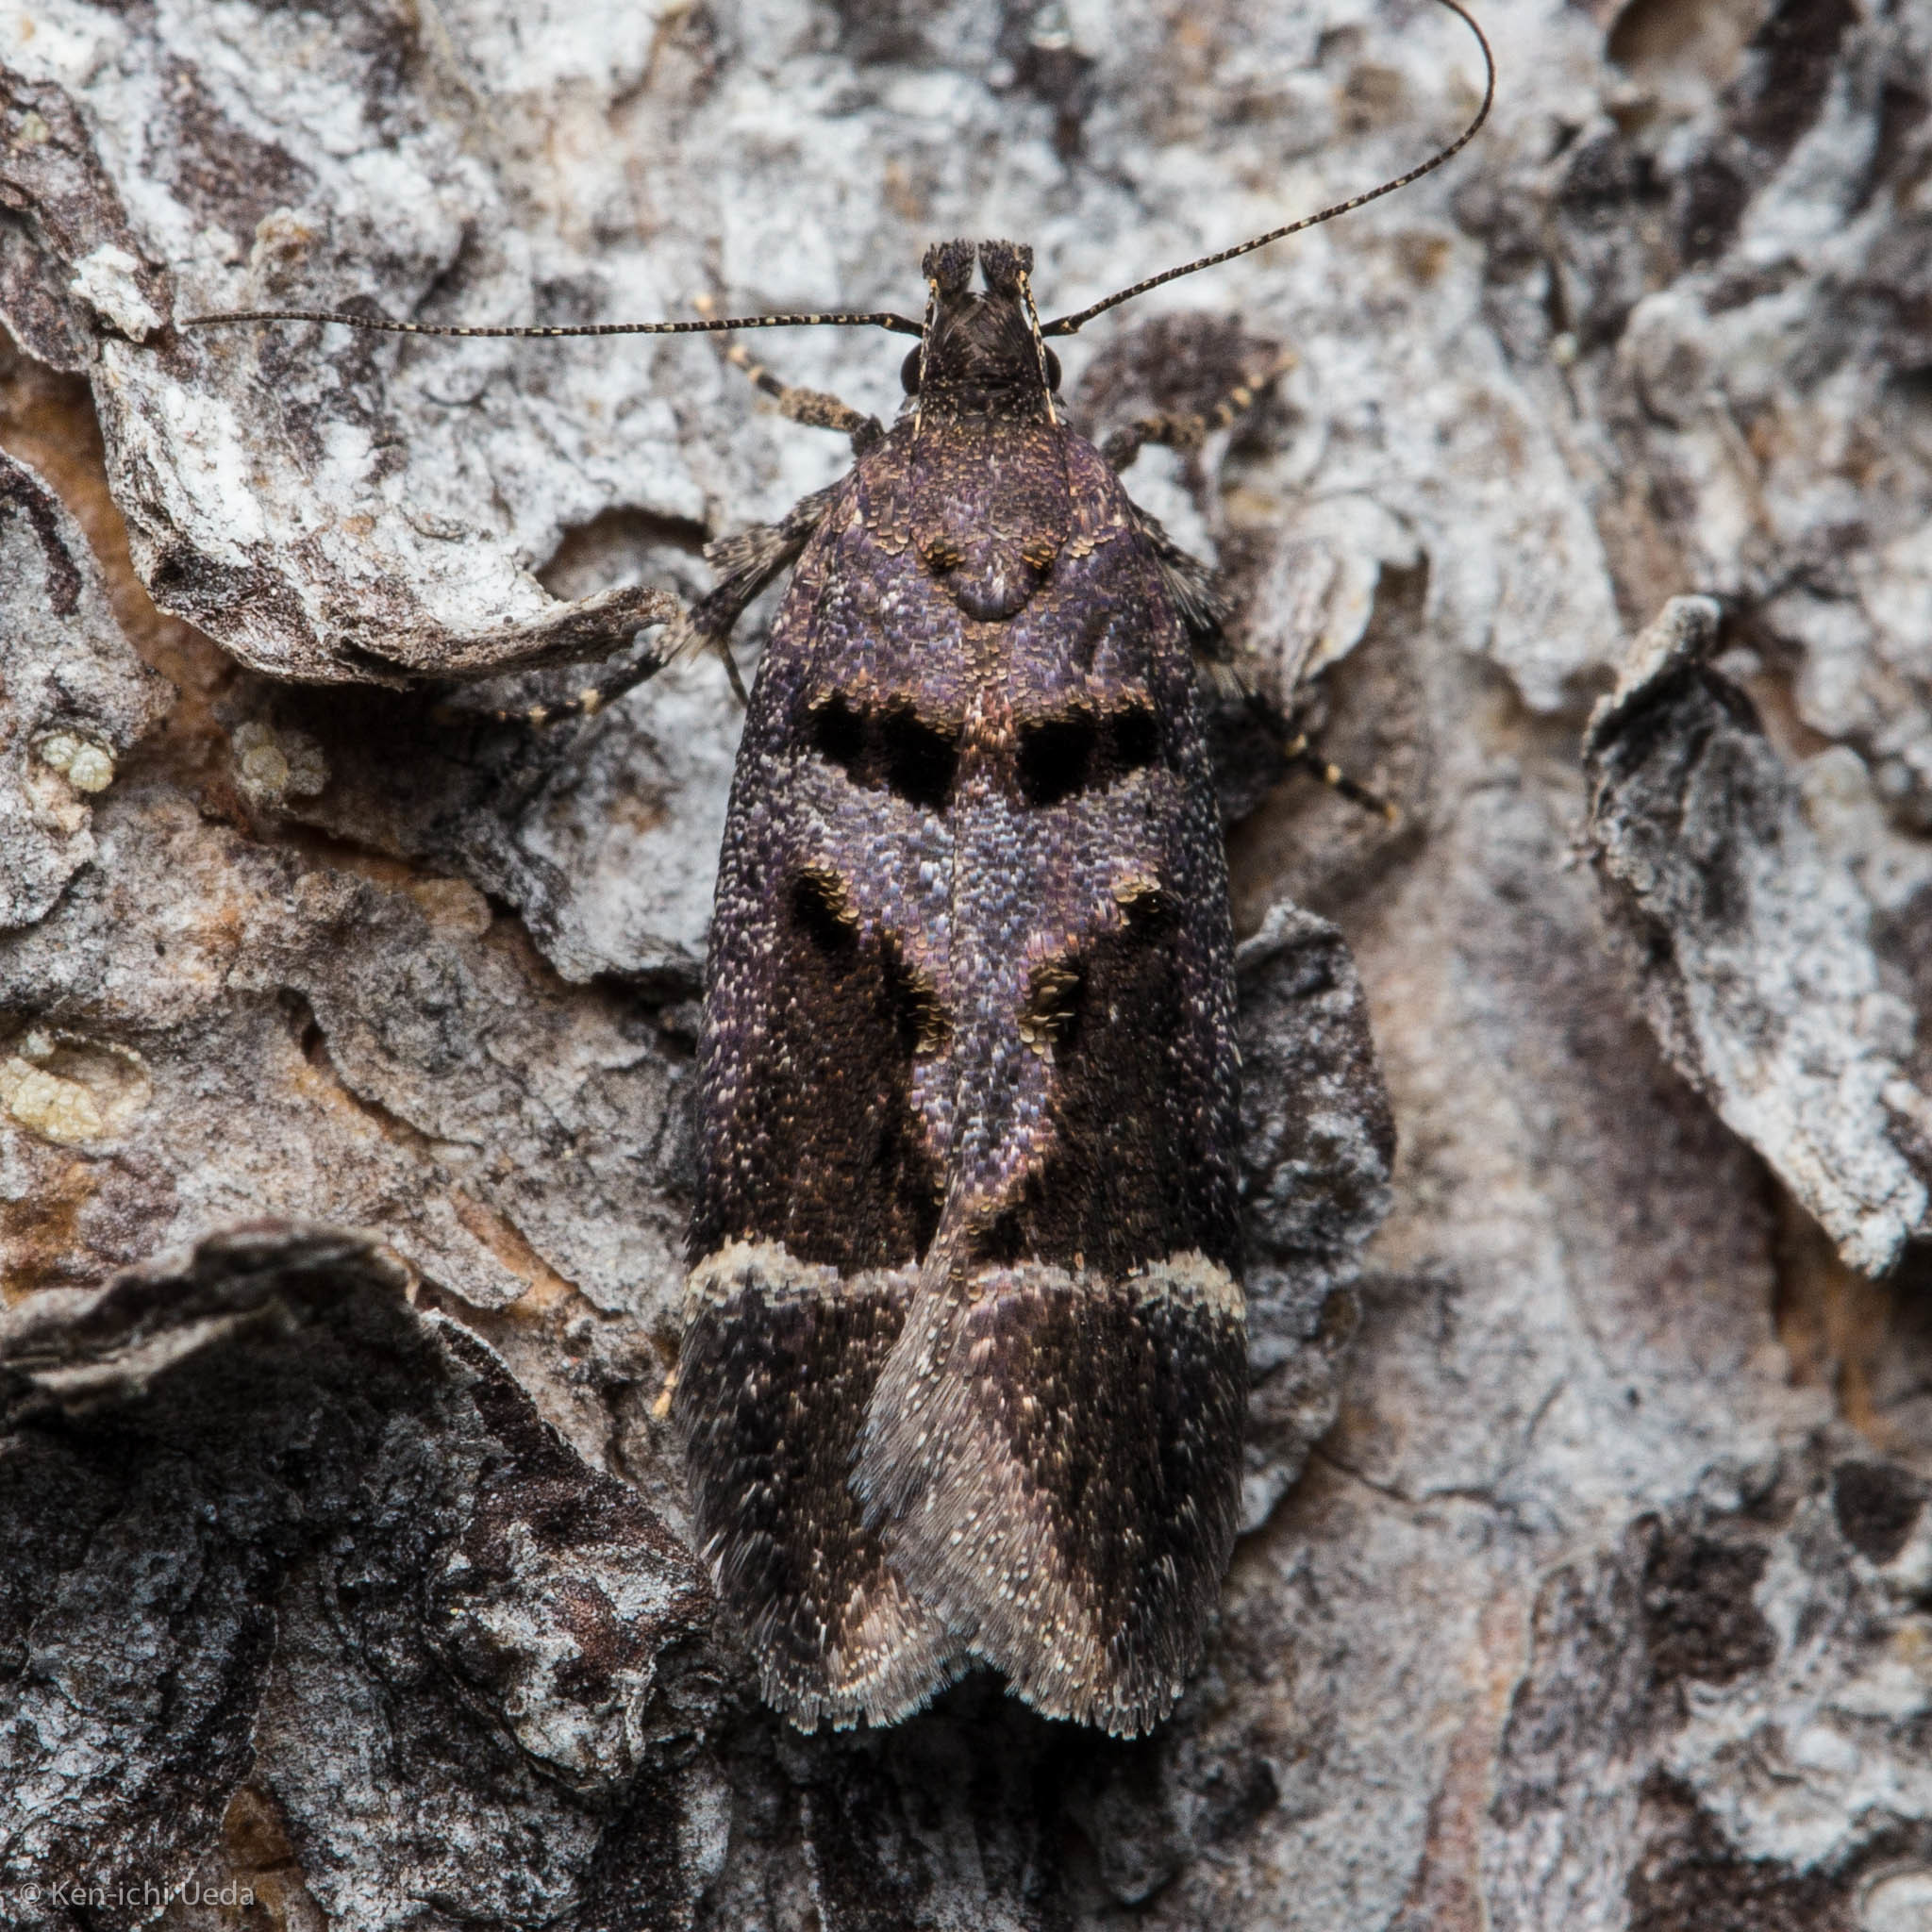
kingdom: Animalia
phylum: Arthropoda
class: Insecta
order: Lepidoptera
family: Gelechiidae
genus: Pseudochelaria
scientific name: Pseudochelaria manzanitae
